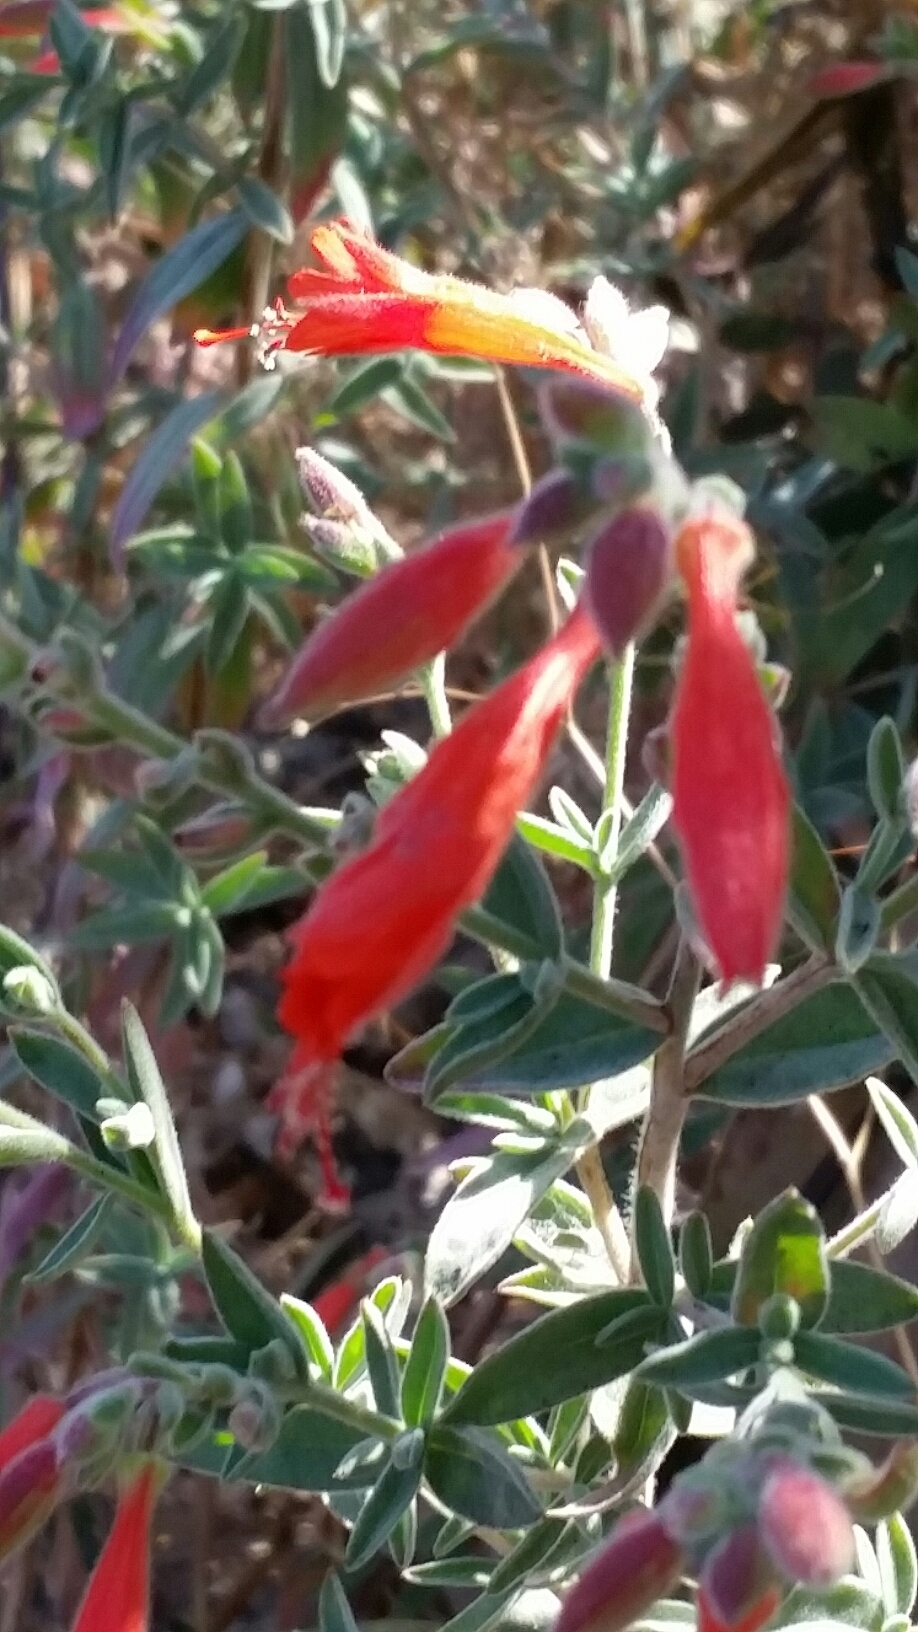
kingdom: Plantae
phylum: Tracheophyta
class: Magnoliopsida
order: Myrtales
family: Onagraceae
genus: Epilobium
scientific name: Epilobium canum
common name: California-fuchsia
